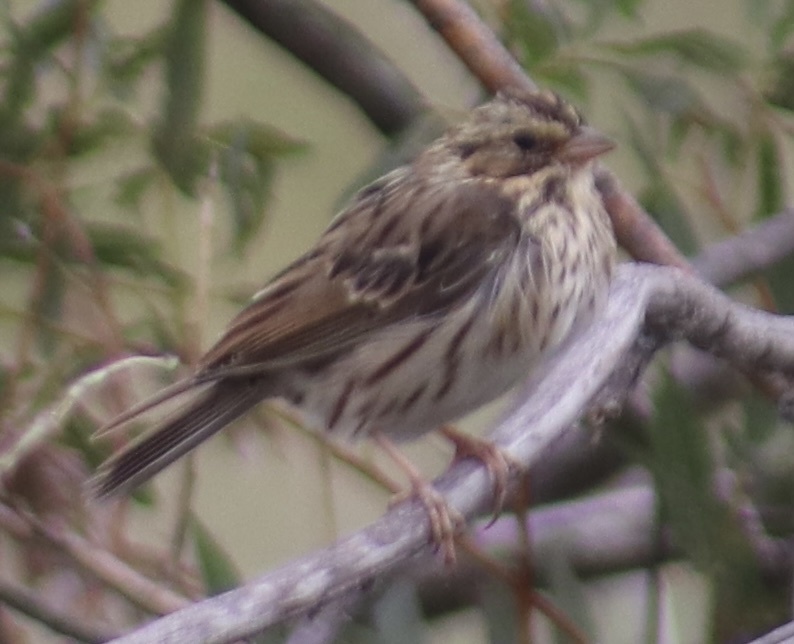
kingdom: Animalia
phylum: Chordata
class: Aves
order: Passeriformes
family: Passerellidae
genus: Passerculus
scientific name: Passerculus sandwichensis
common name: Savannah sparrow
